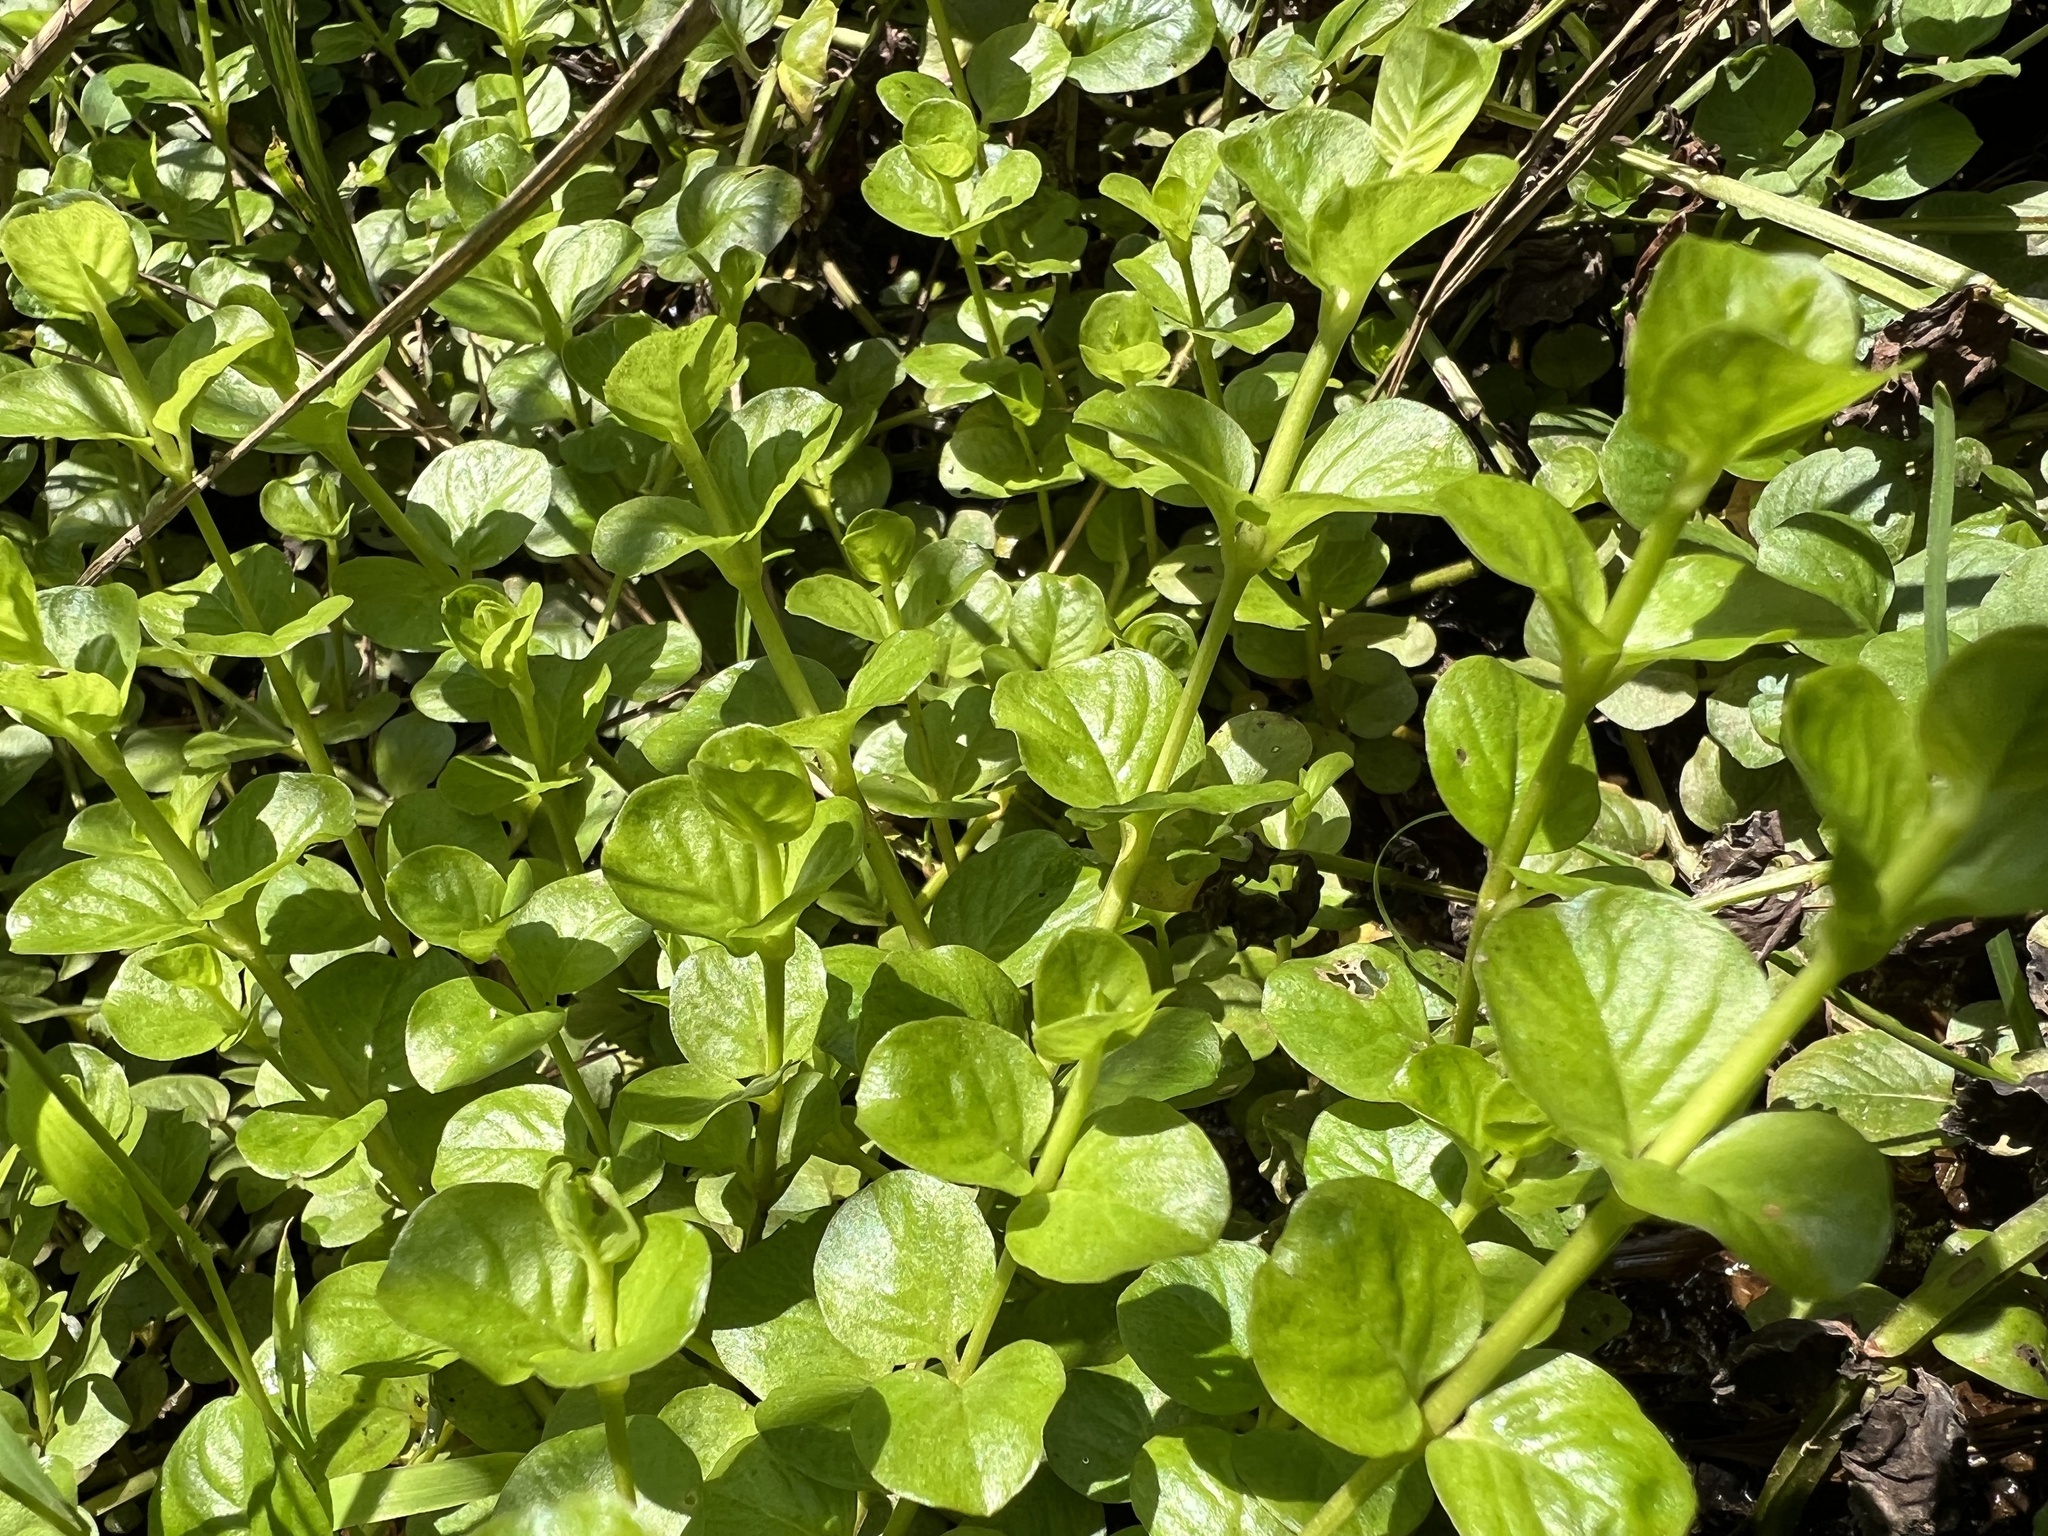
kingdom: Plantae
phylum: Tracheophyta
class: Magnoliopsida
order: Ericales
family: Primulaceae
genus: Lysimachia
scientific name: Lysimachia nummularia
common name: Moneywort
